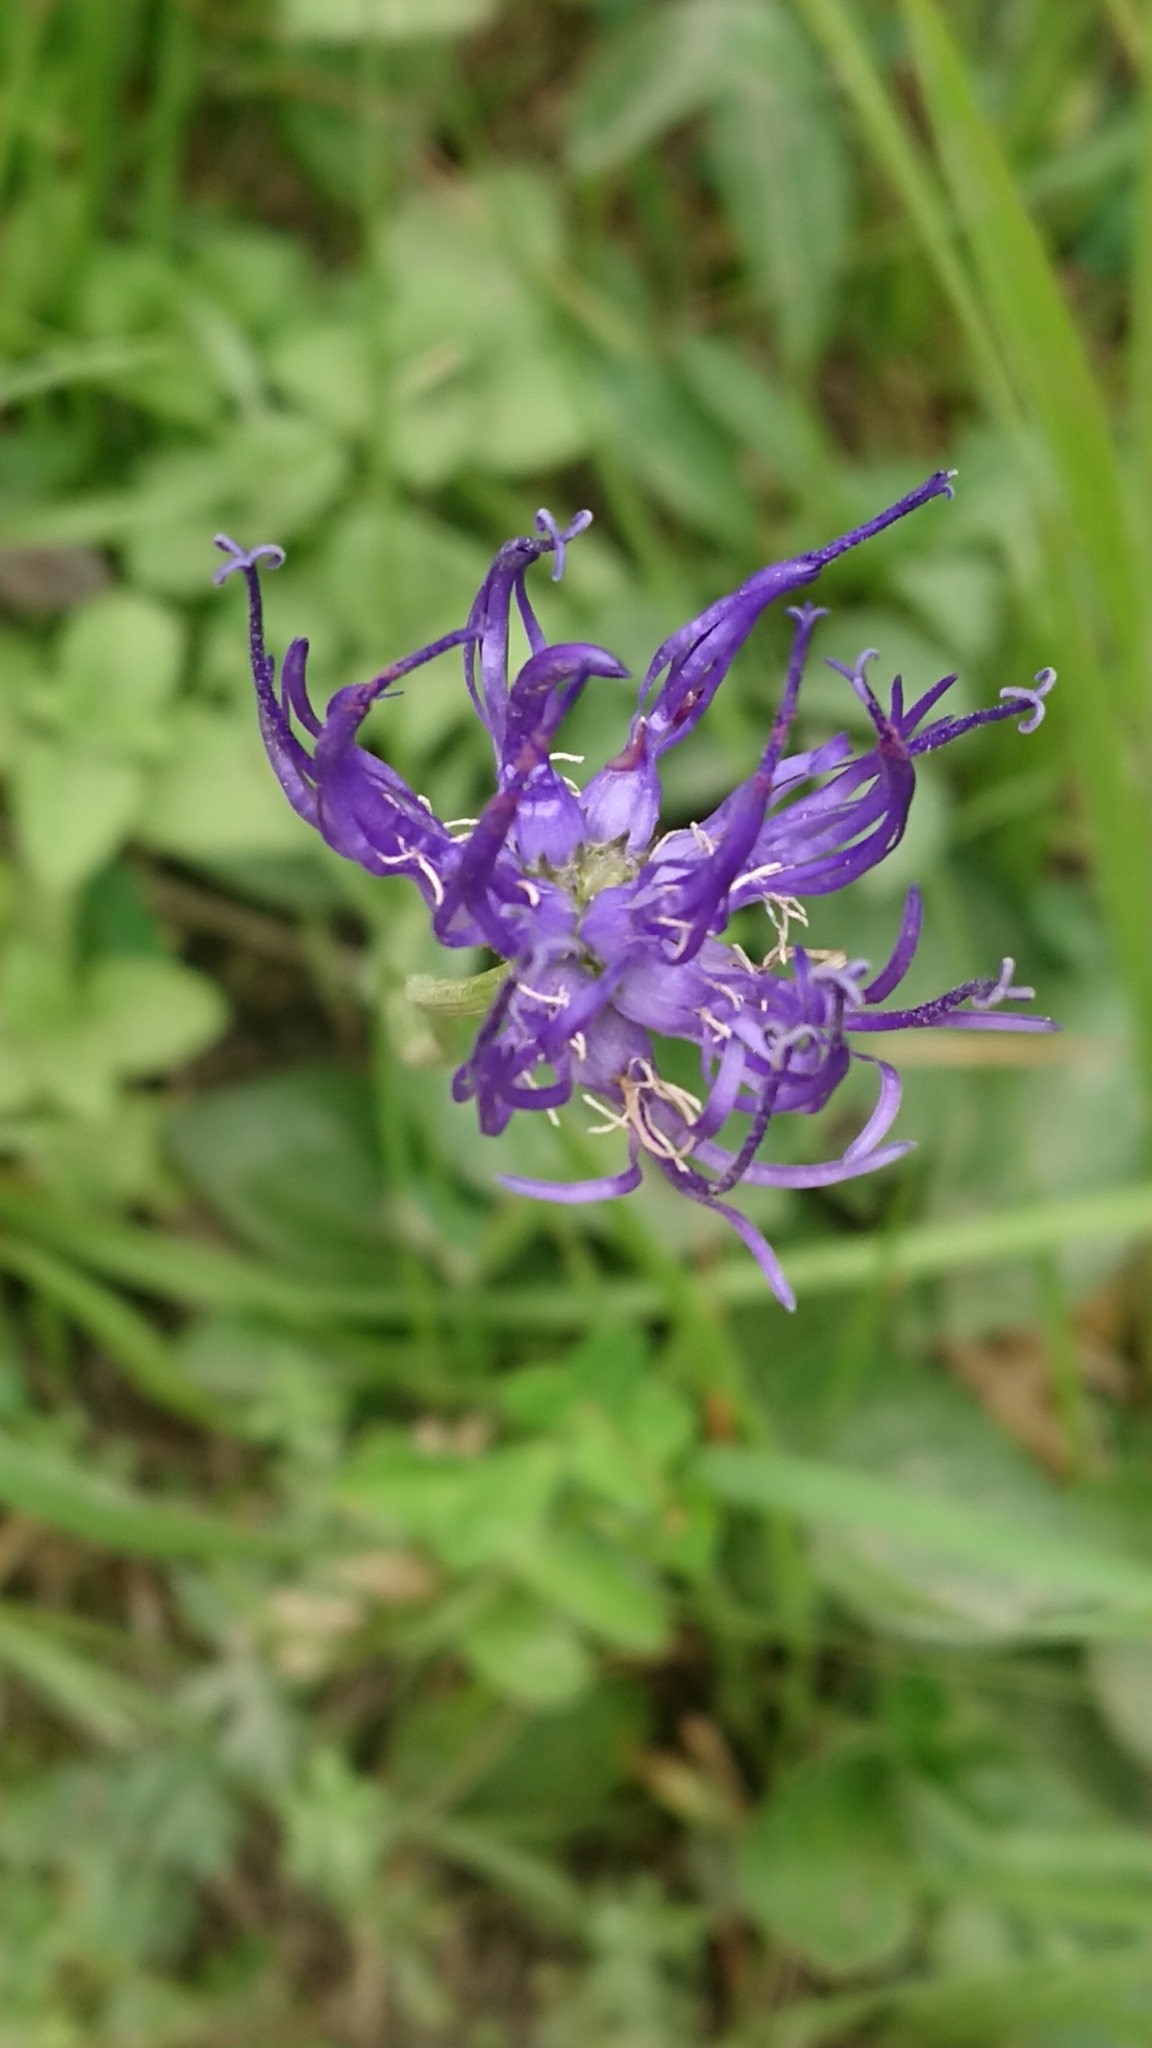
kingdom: Plantae
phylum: Tracheophyta
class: Magnoliopsida
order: Asterales
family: Campanulaceae
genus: Phyteuma
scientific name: Phyteuma orbiculare
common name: Round-headed rampion
